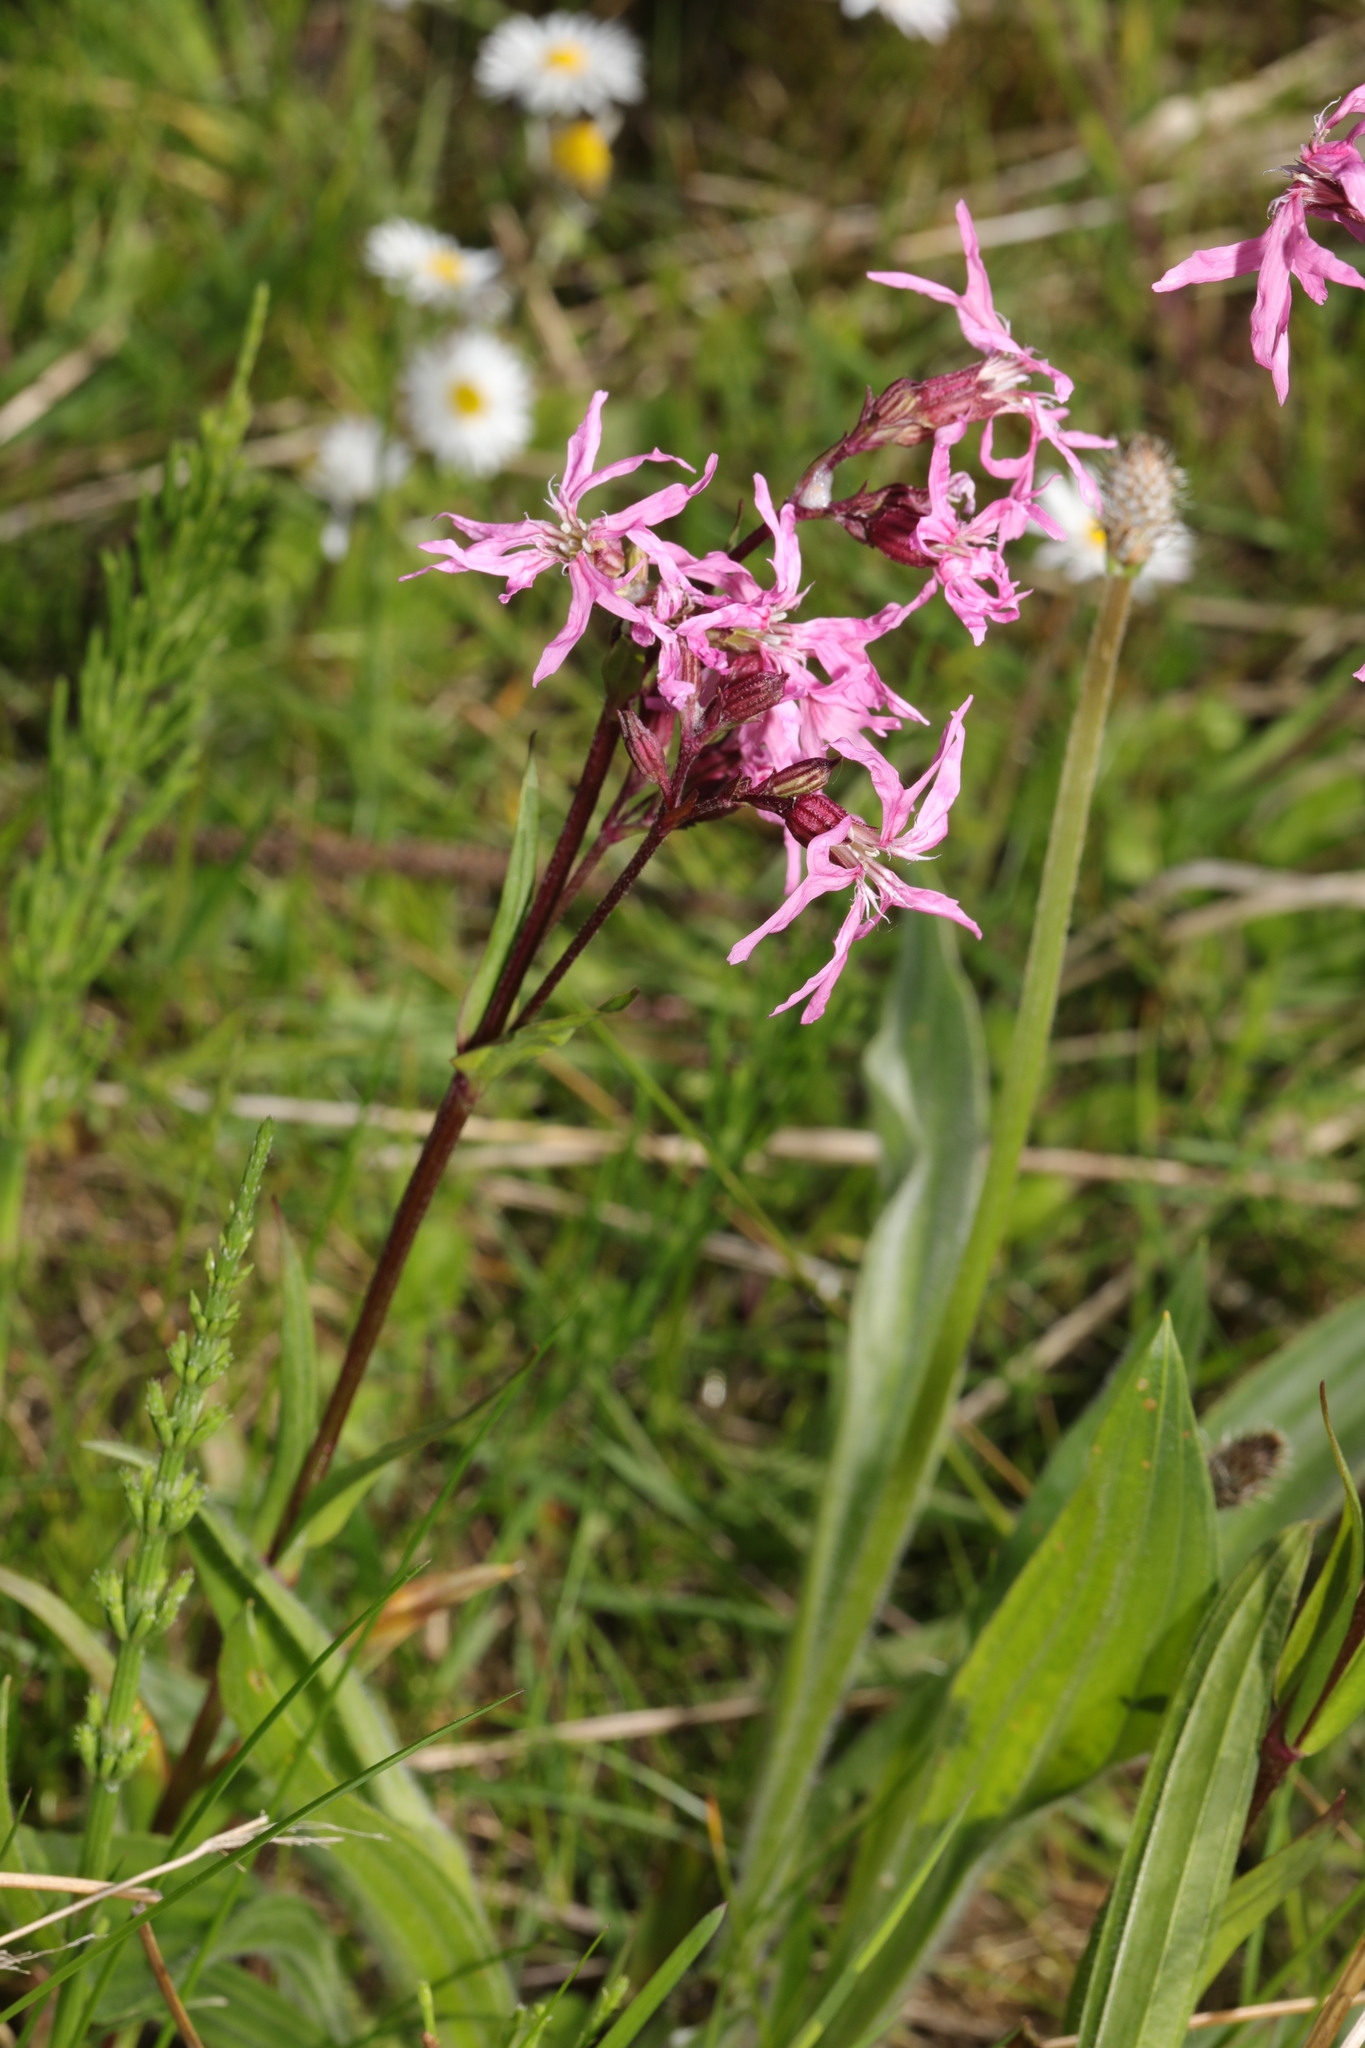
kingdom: Plantae
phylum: Tracheophyta
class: Magnoliopsida
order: Caryophyllales
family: Caryophyllaceae
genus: Silene
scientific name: Silene flos-cuculi
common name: Ragged-robin
